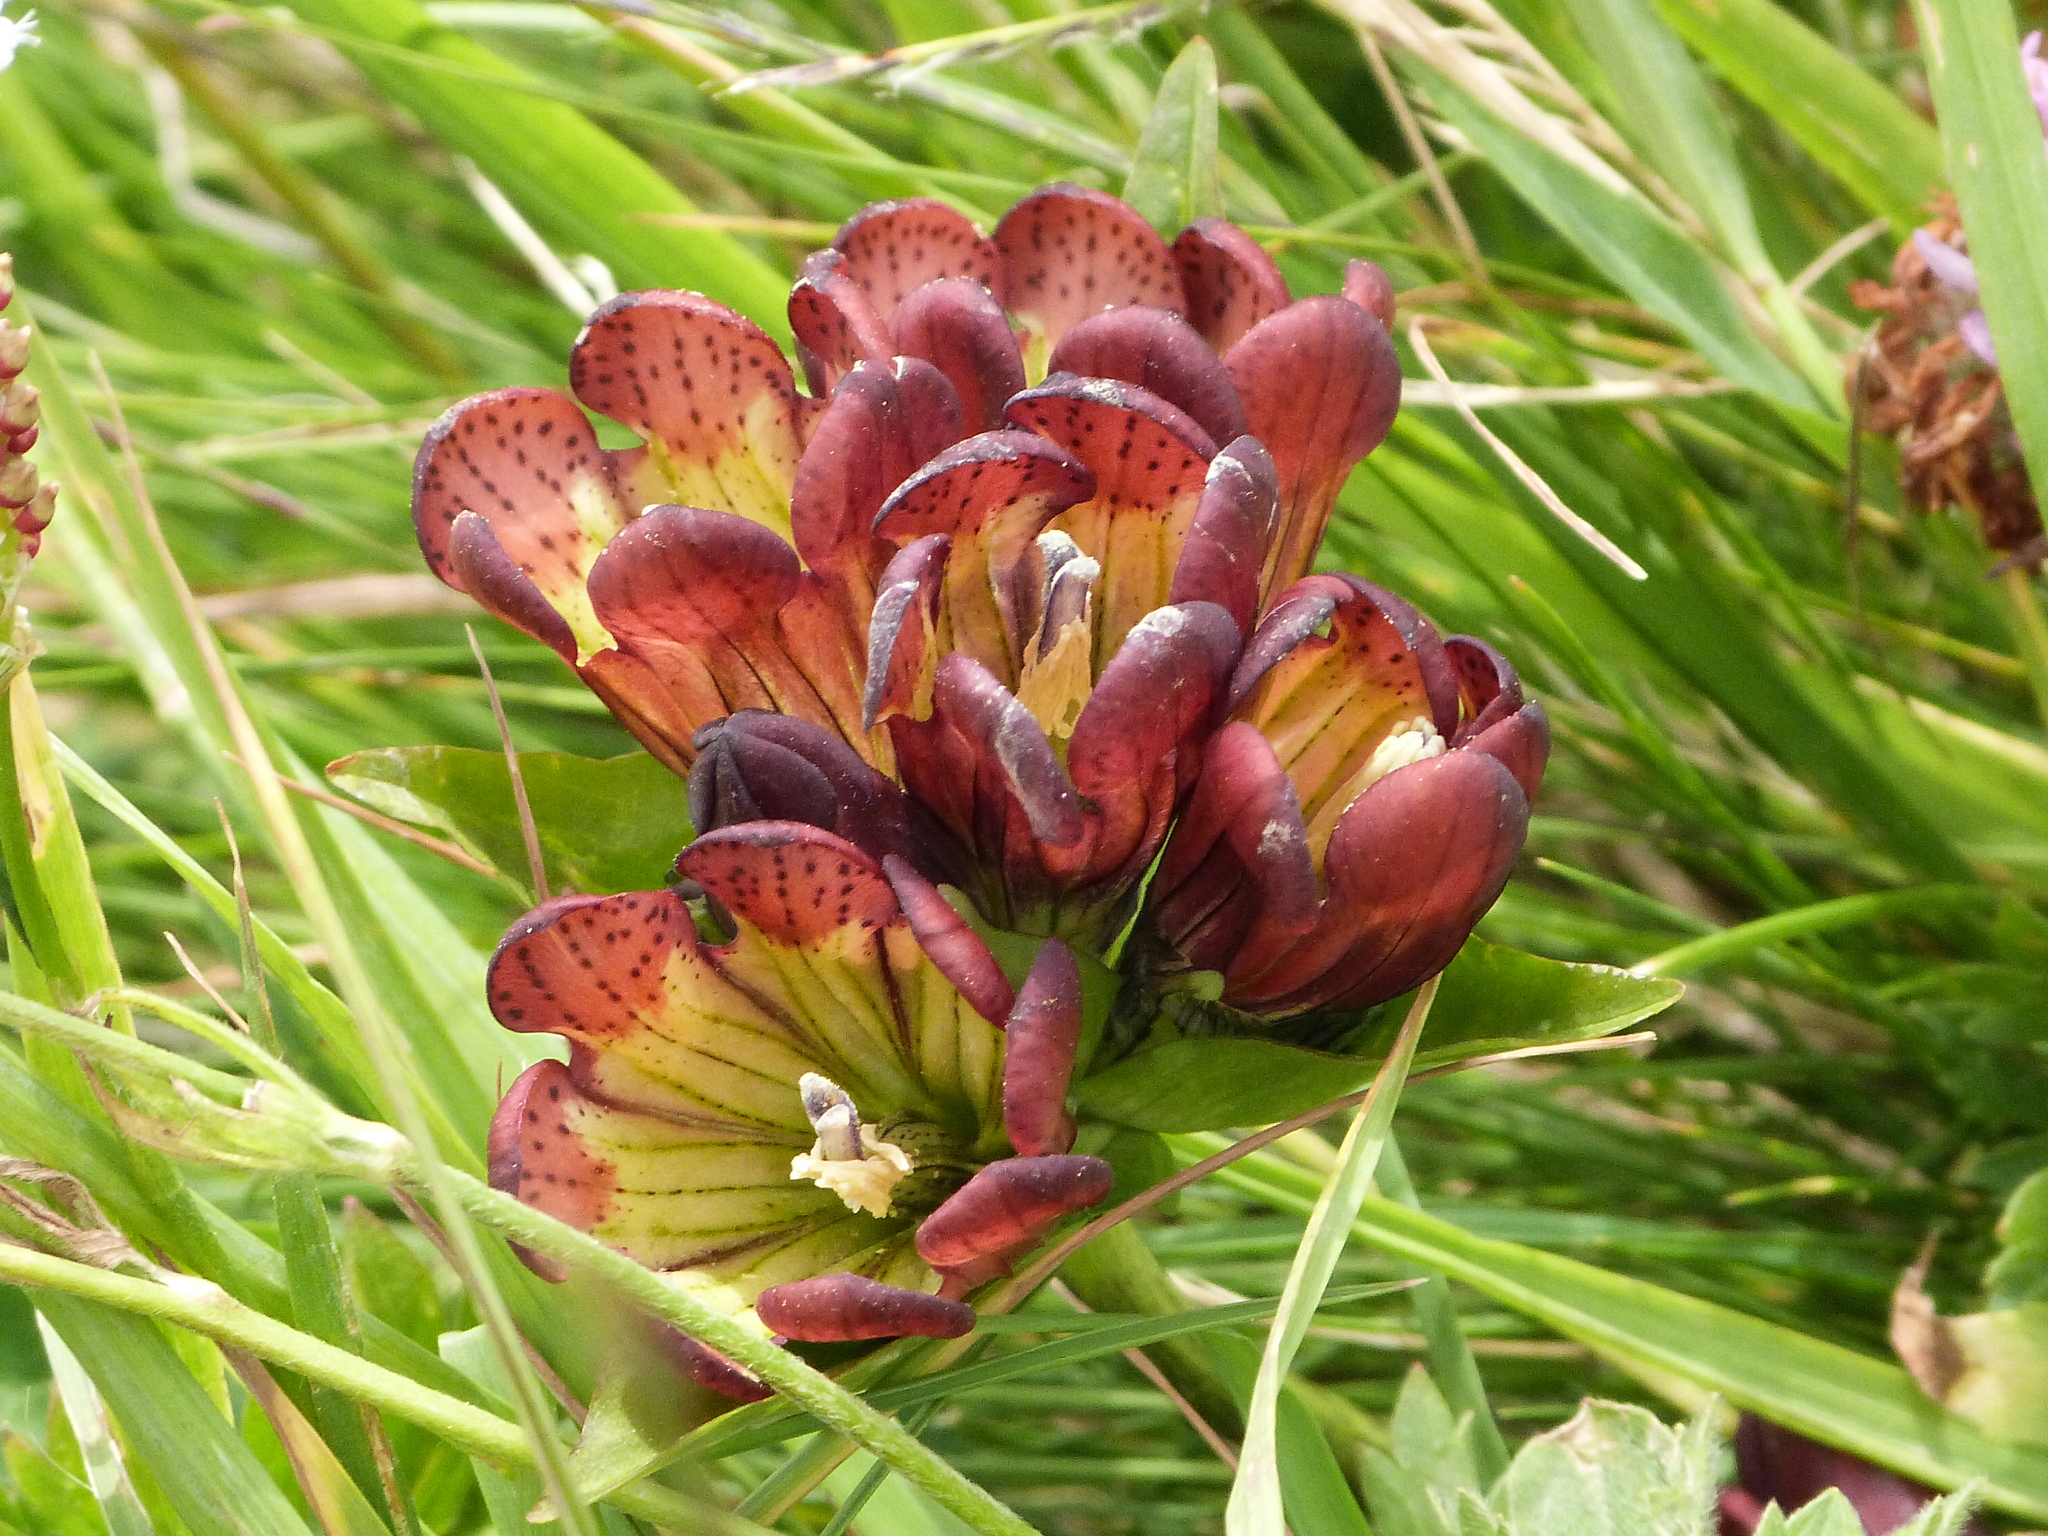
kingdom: Plantae
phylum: Tracheophyta
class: Magnoliopsida
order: Gentianales
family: Gentianaceae
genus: Gentiana
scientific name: Gentiana purpurea
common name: Purple gentian
